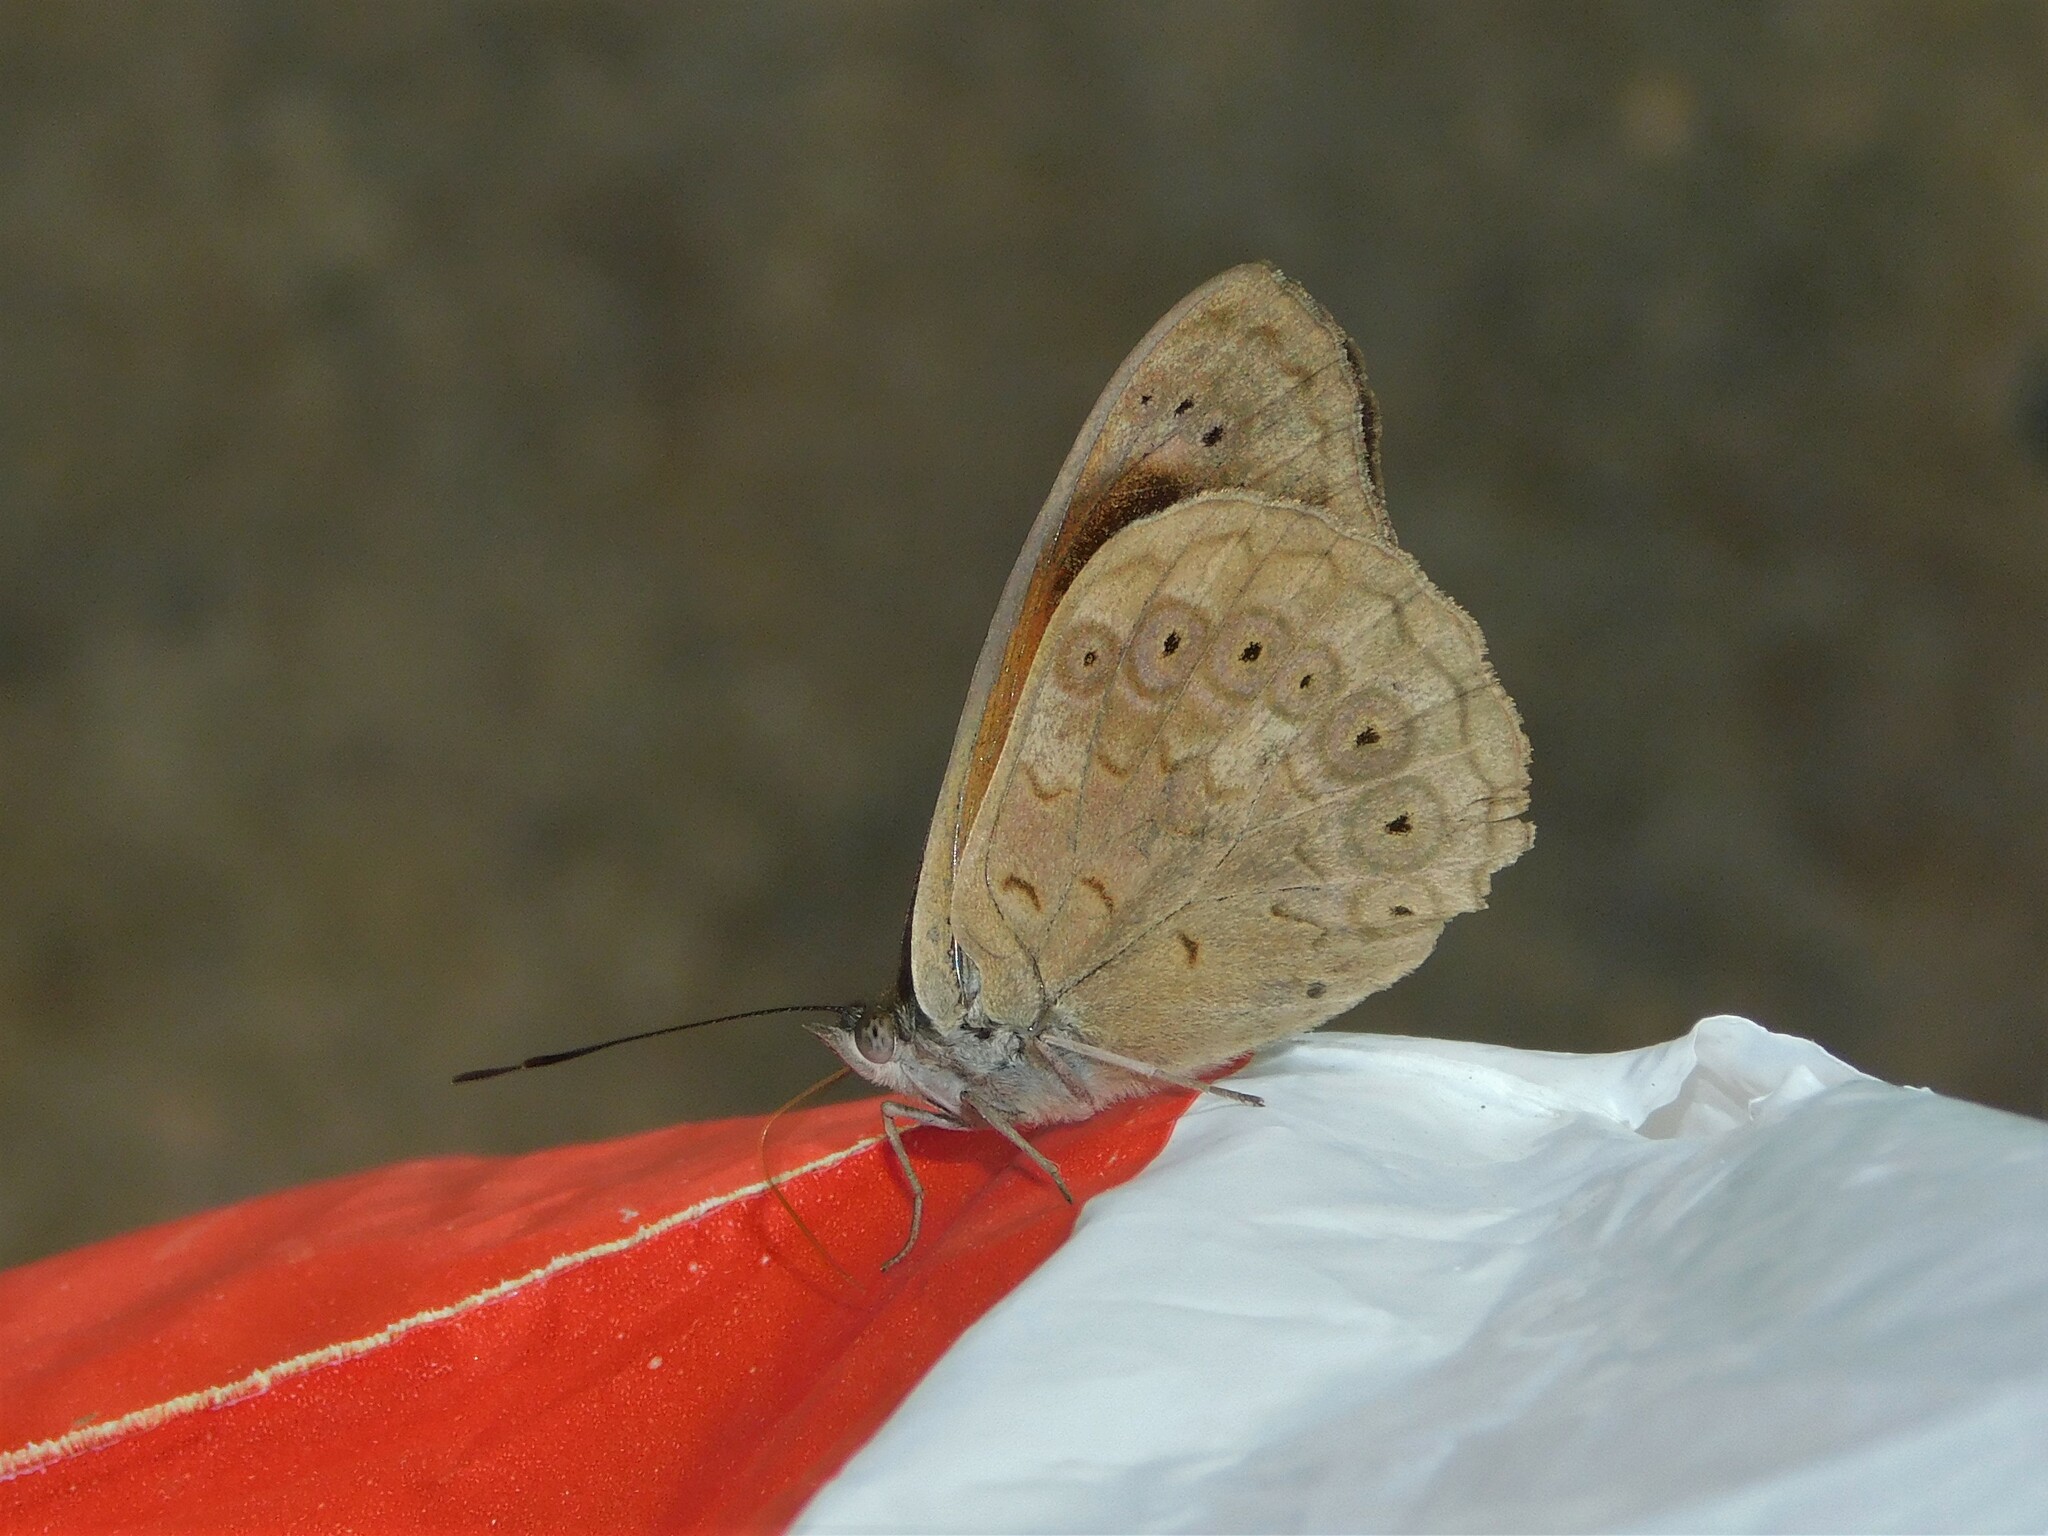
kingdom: Animalia
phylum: Arthropoda
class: Insecta
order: Lepidoptera
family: Nymphalidae
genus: Asterope
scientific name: Asterope occidentalium
